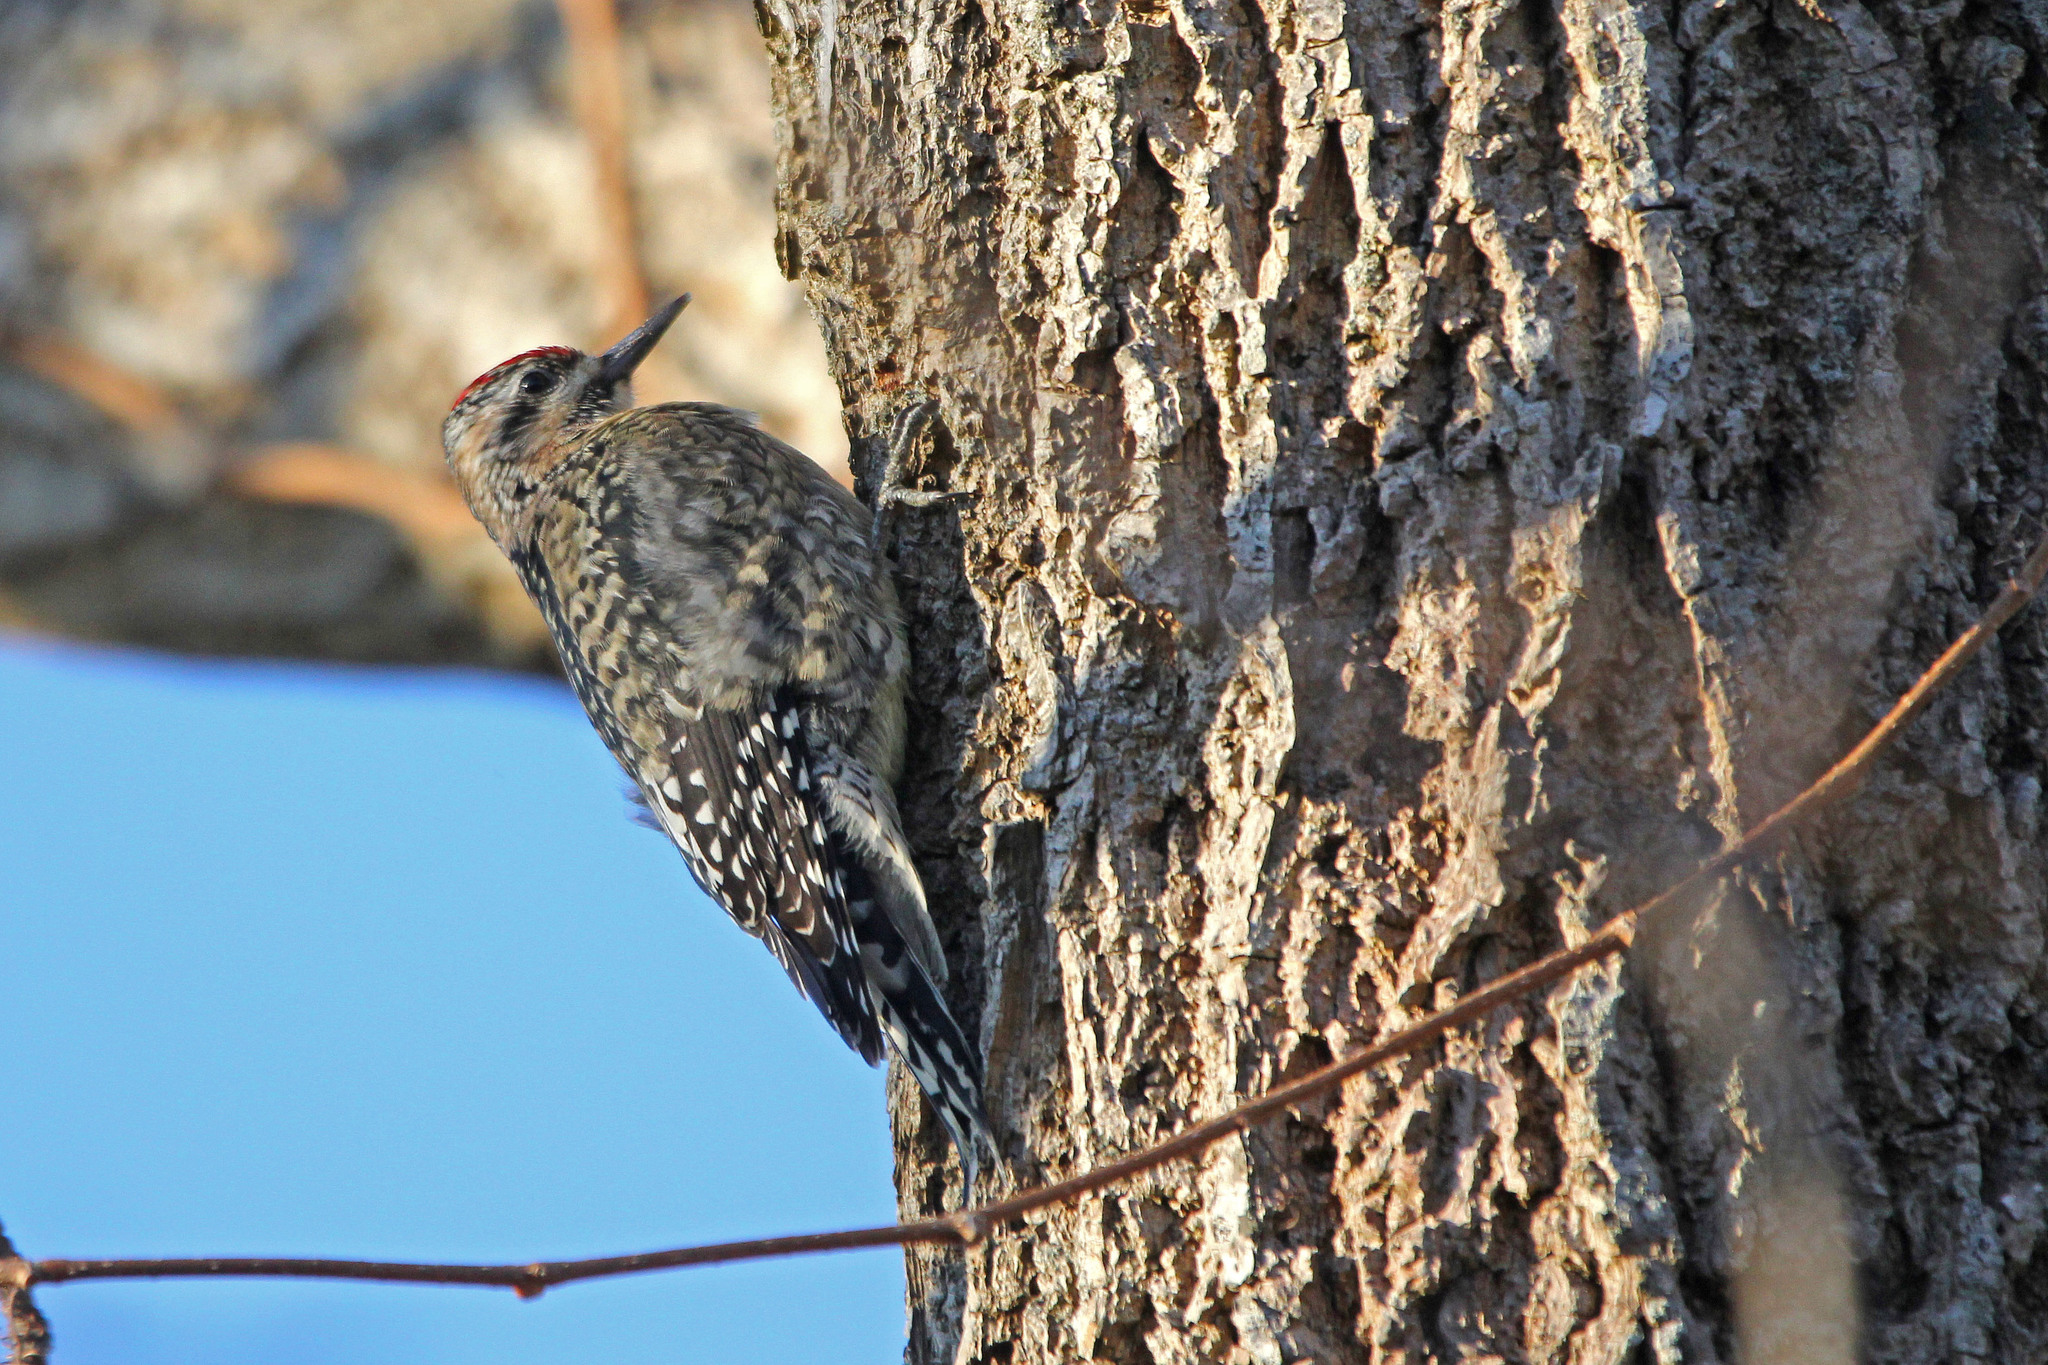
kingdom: Animalia
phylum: Chordata
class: Aves
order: Piciformes
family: Picidae
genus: Sphyrapicus
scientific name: Sphyrapicus varius
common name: Yellow-bellied sapsucker
